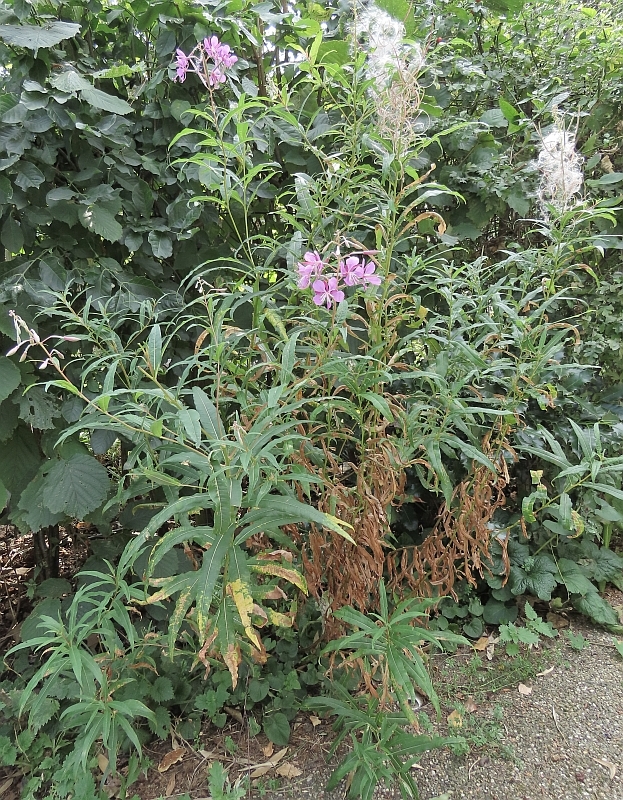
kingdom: Plantae
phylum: Tracheophyta
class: Magnoliopsida
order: Myrtales
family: Onagraceae
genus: Chamaenerion
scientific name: Chamaenerion angustifolium
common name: Fireweed
